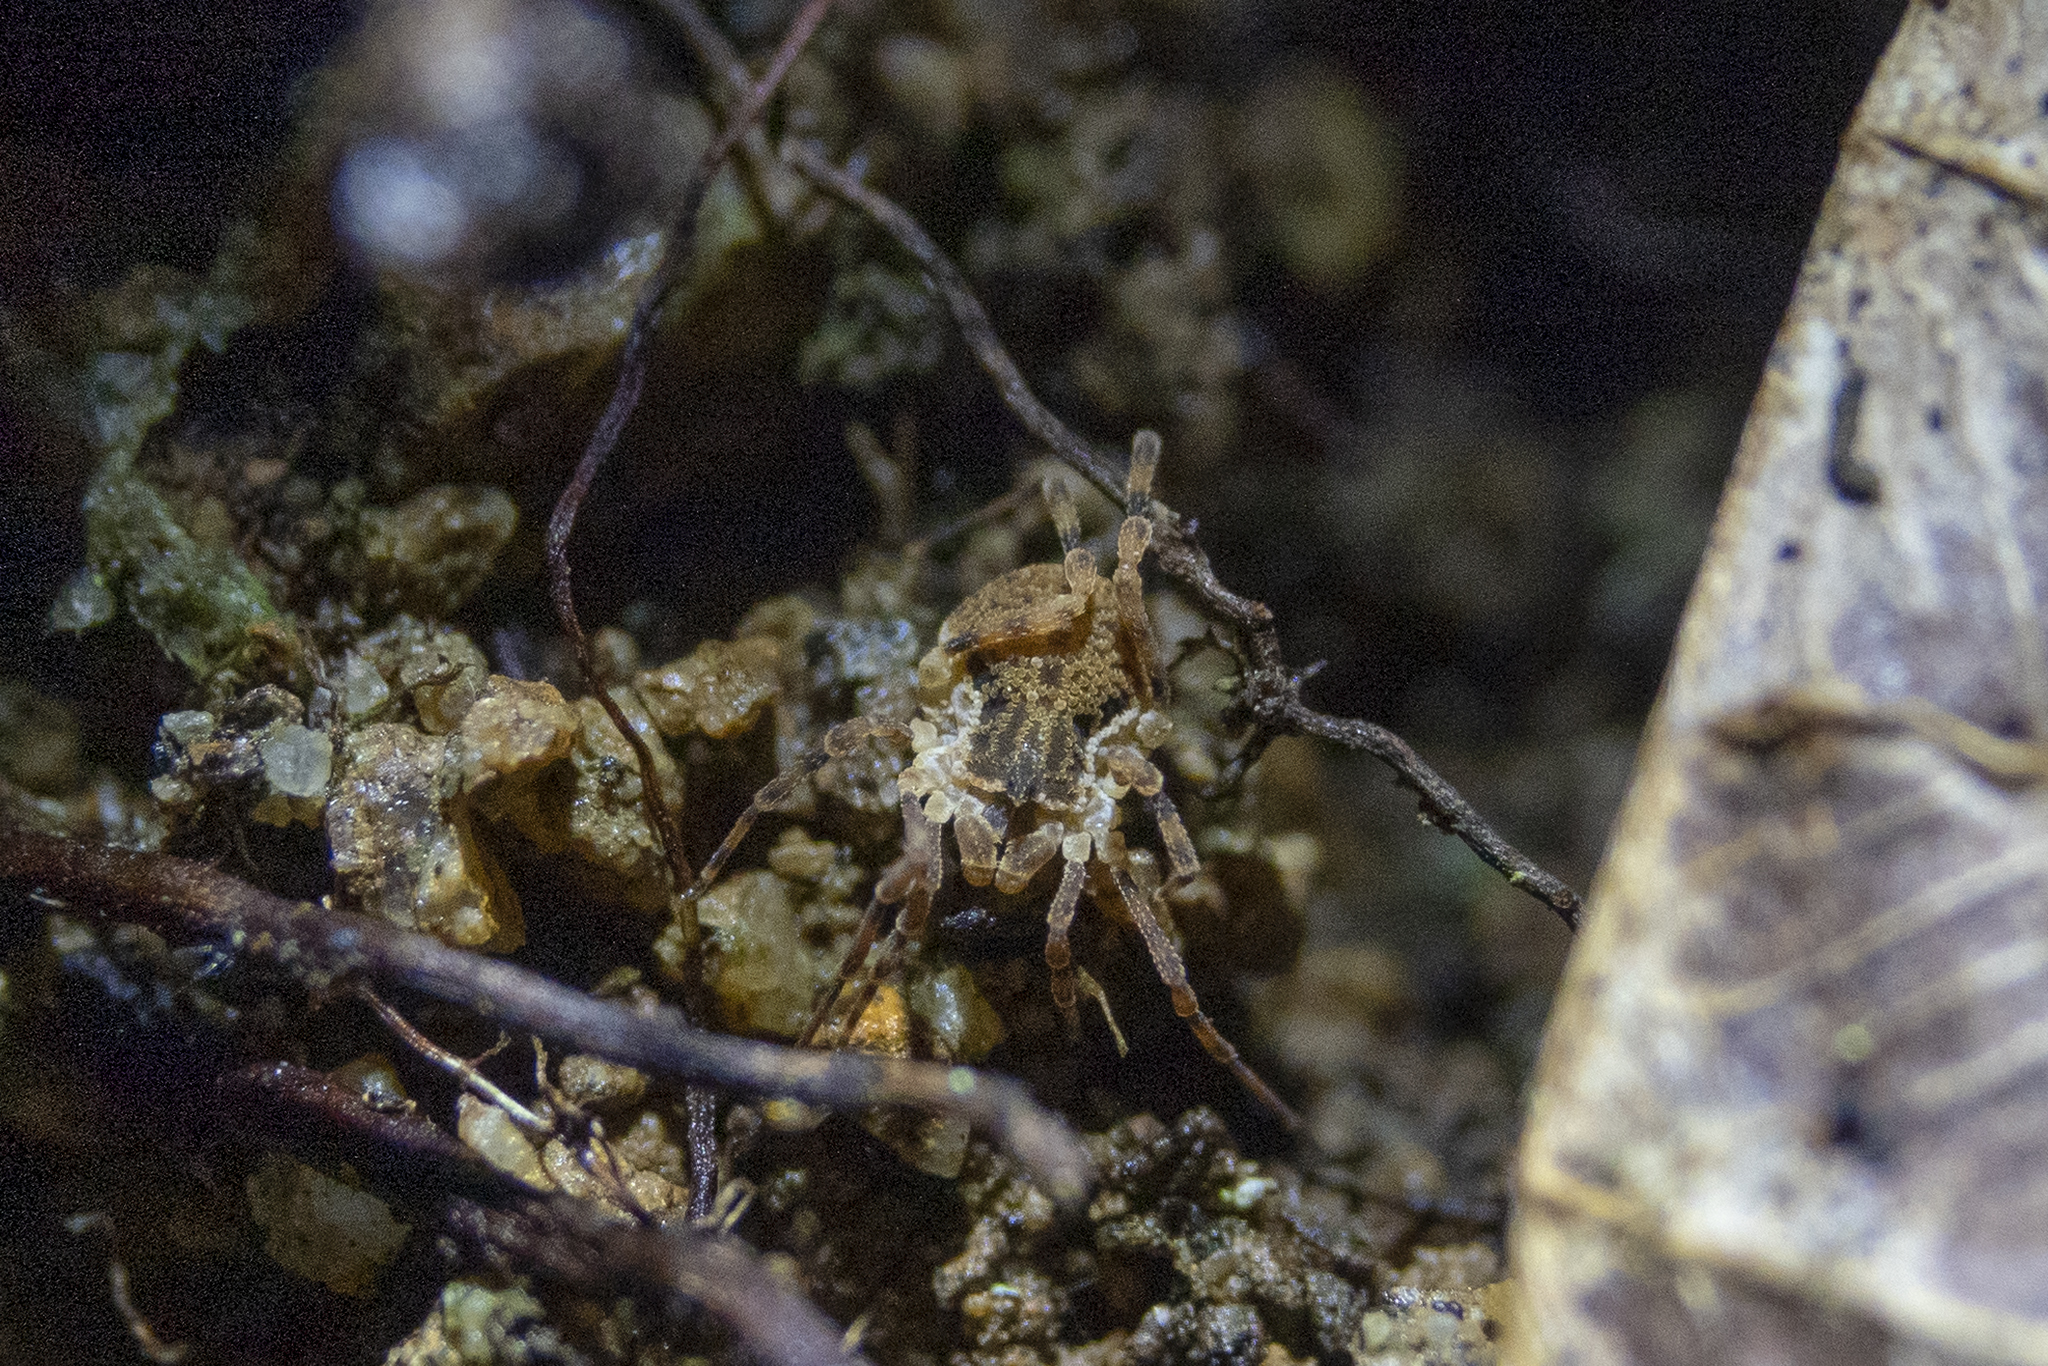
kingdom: Animalia
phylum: Arthropoda
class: Arachnida
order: Opiliones
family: Triaenonychidae
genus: Pristobunus
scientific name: Pristobunus acentrus
